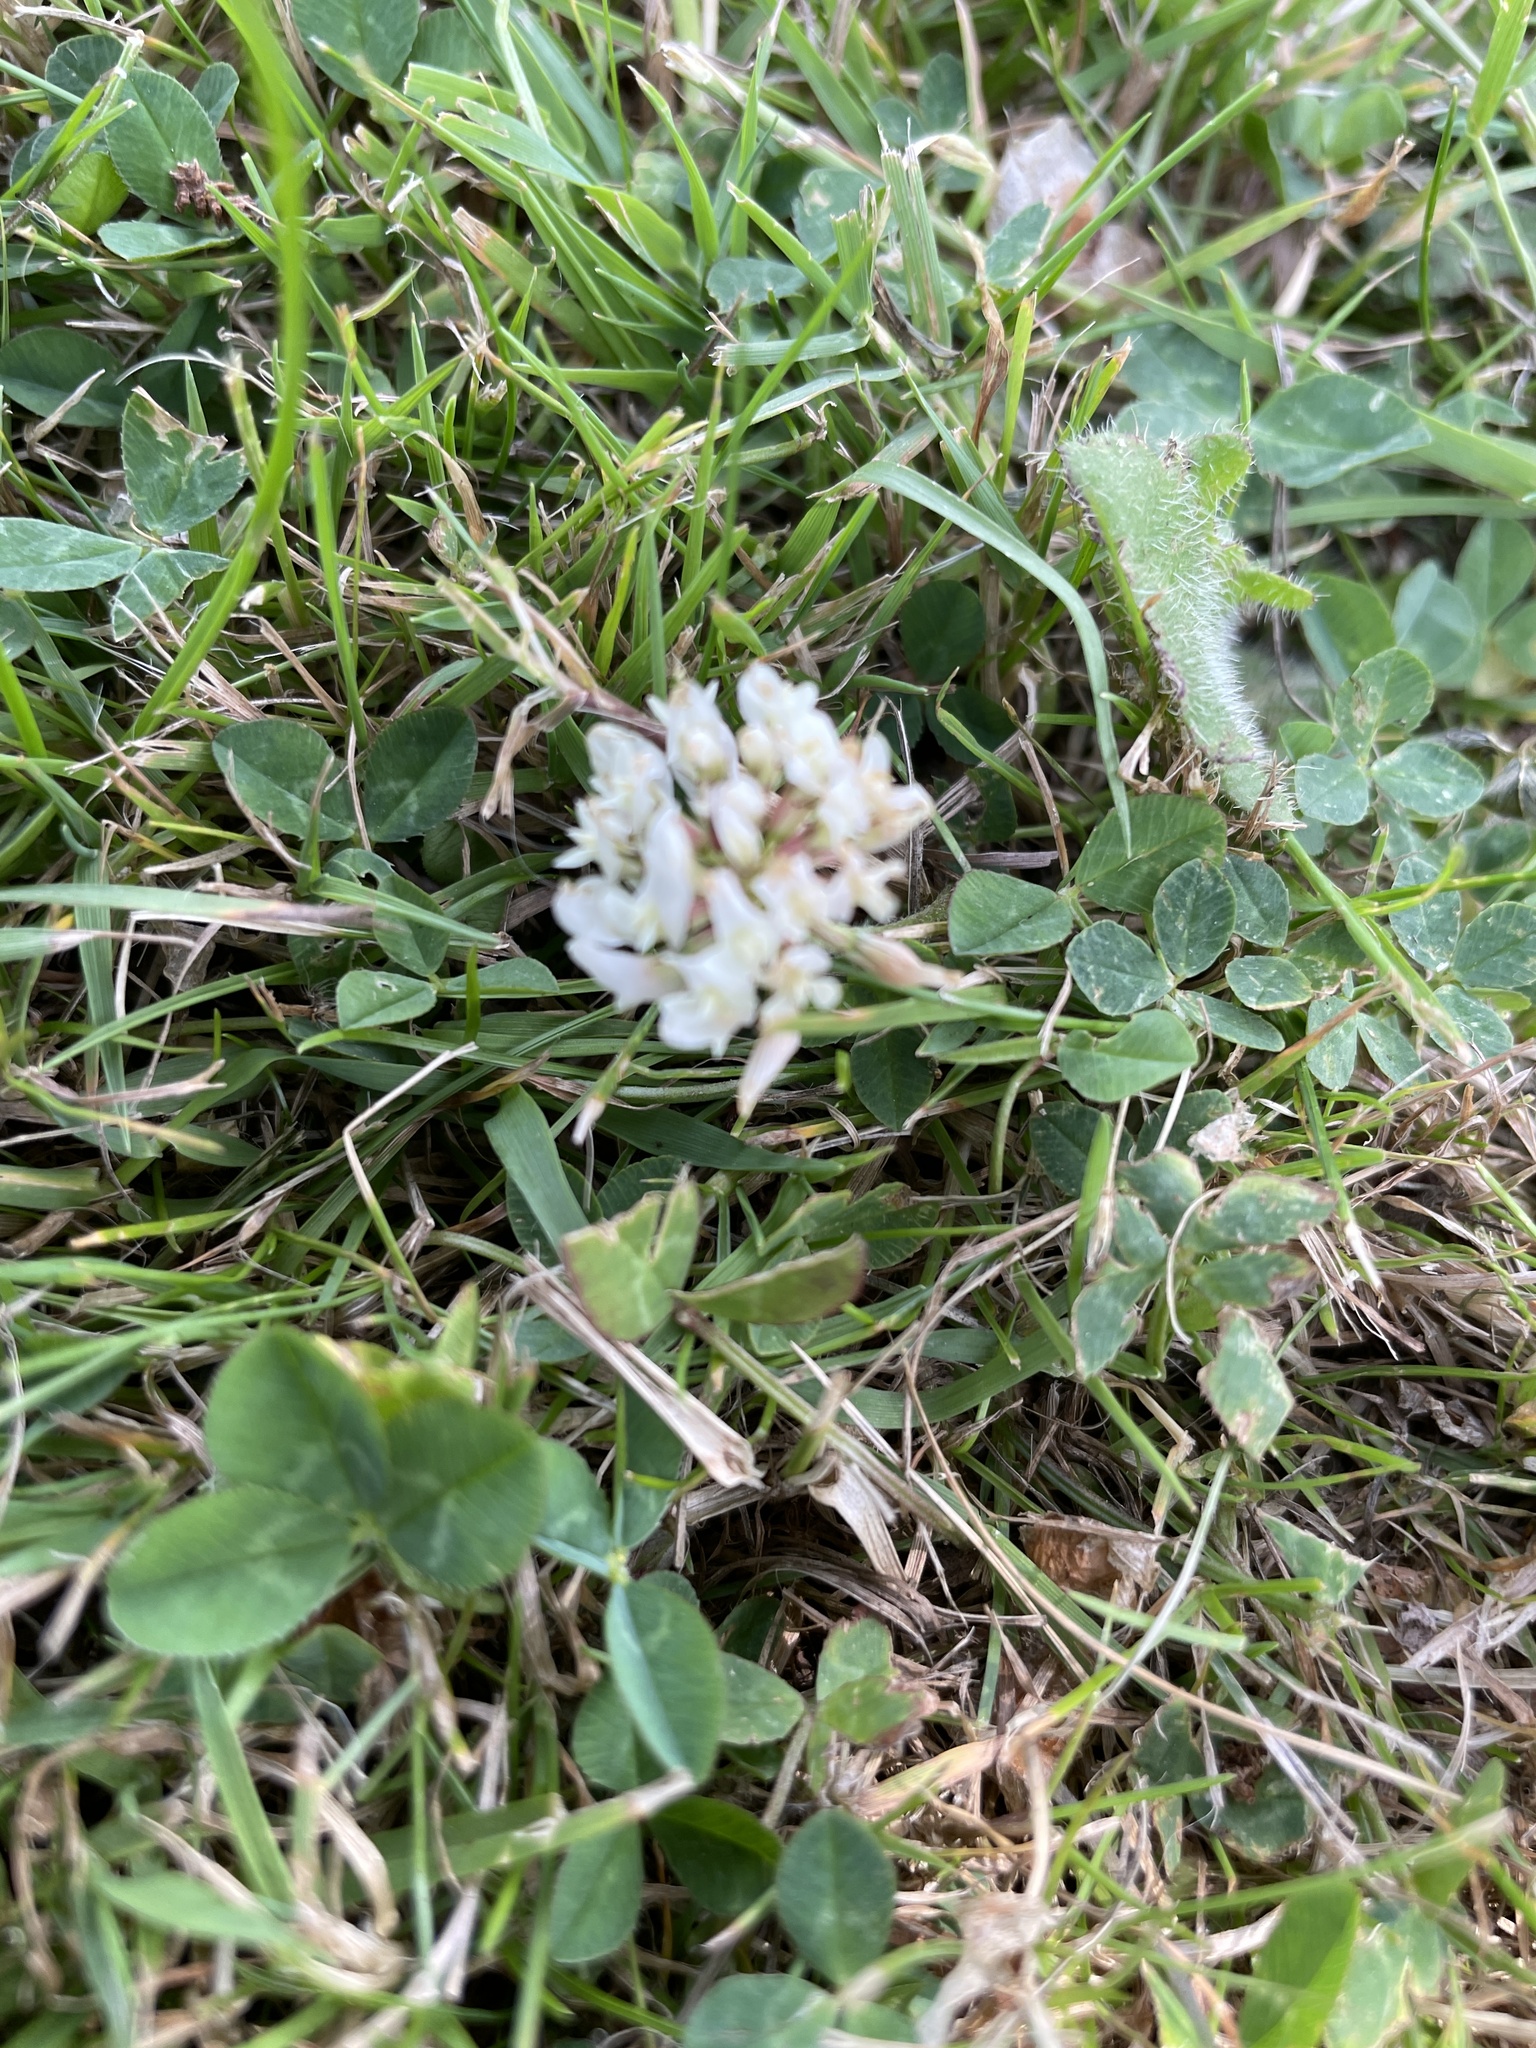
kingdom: Plantae
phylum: Tracheophyta
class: Magnoliopsida
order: Fabales
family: Fabaceae
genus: Trifolium
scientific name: Trifolium repens
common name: White clover
